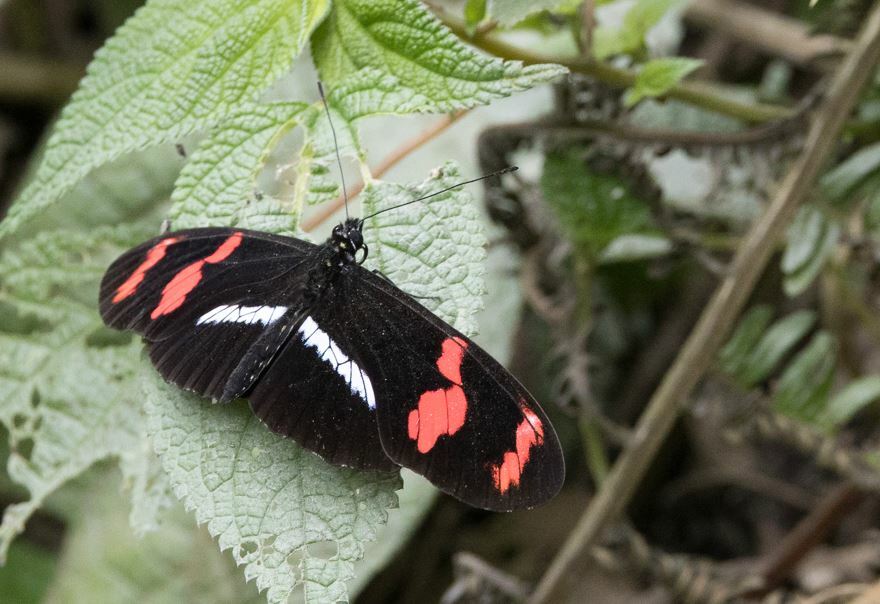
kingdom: Animalia
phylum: Arthropoda
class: Insecta
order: Lepidoptera
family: Nymphalidae
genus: Heliconius
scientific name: Heliconius telesiphe
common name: Telesiphe longwing
